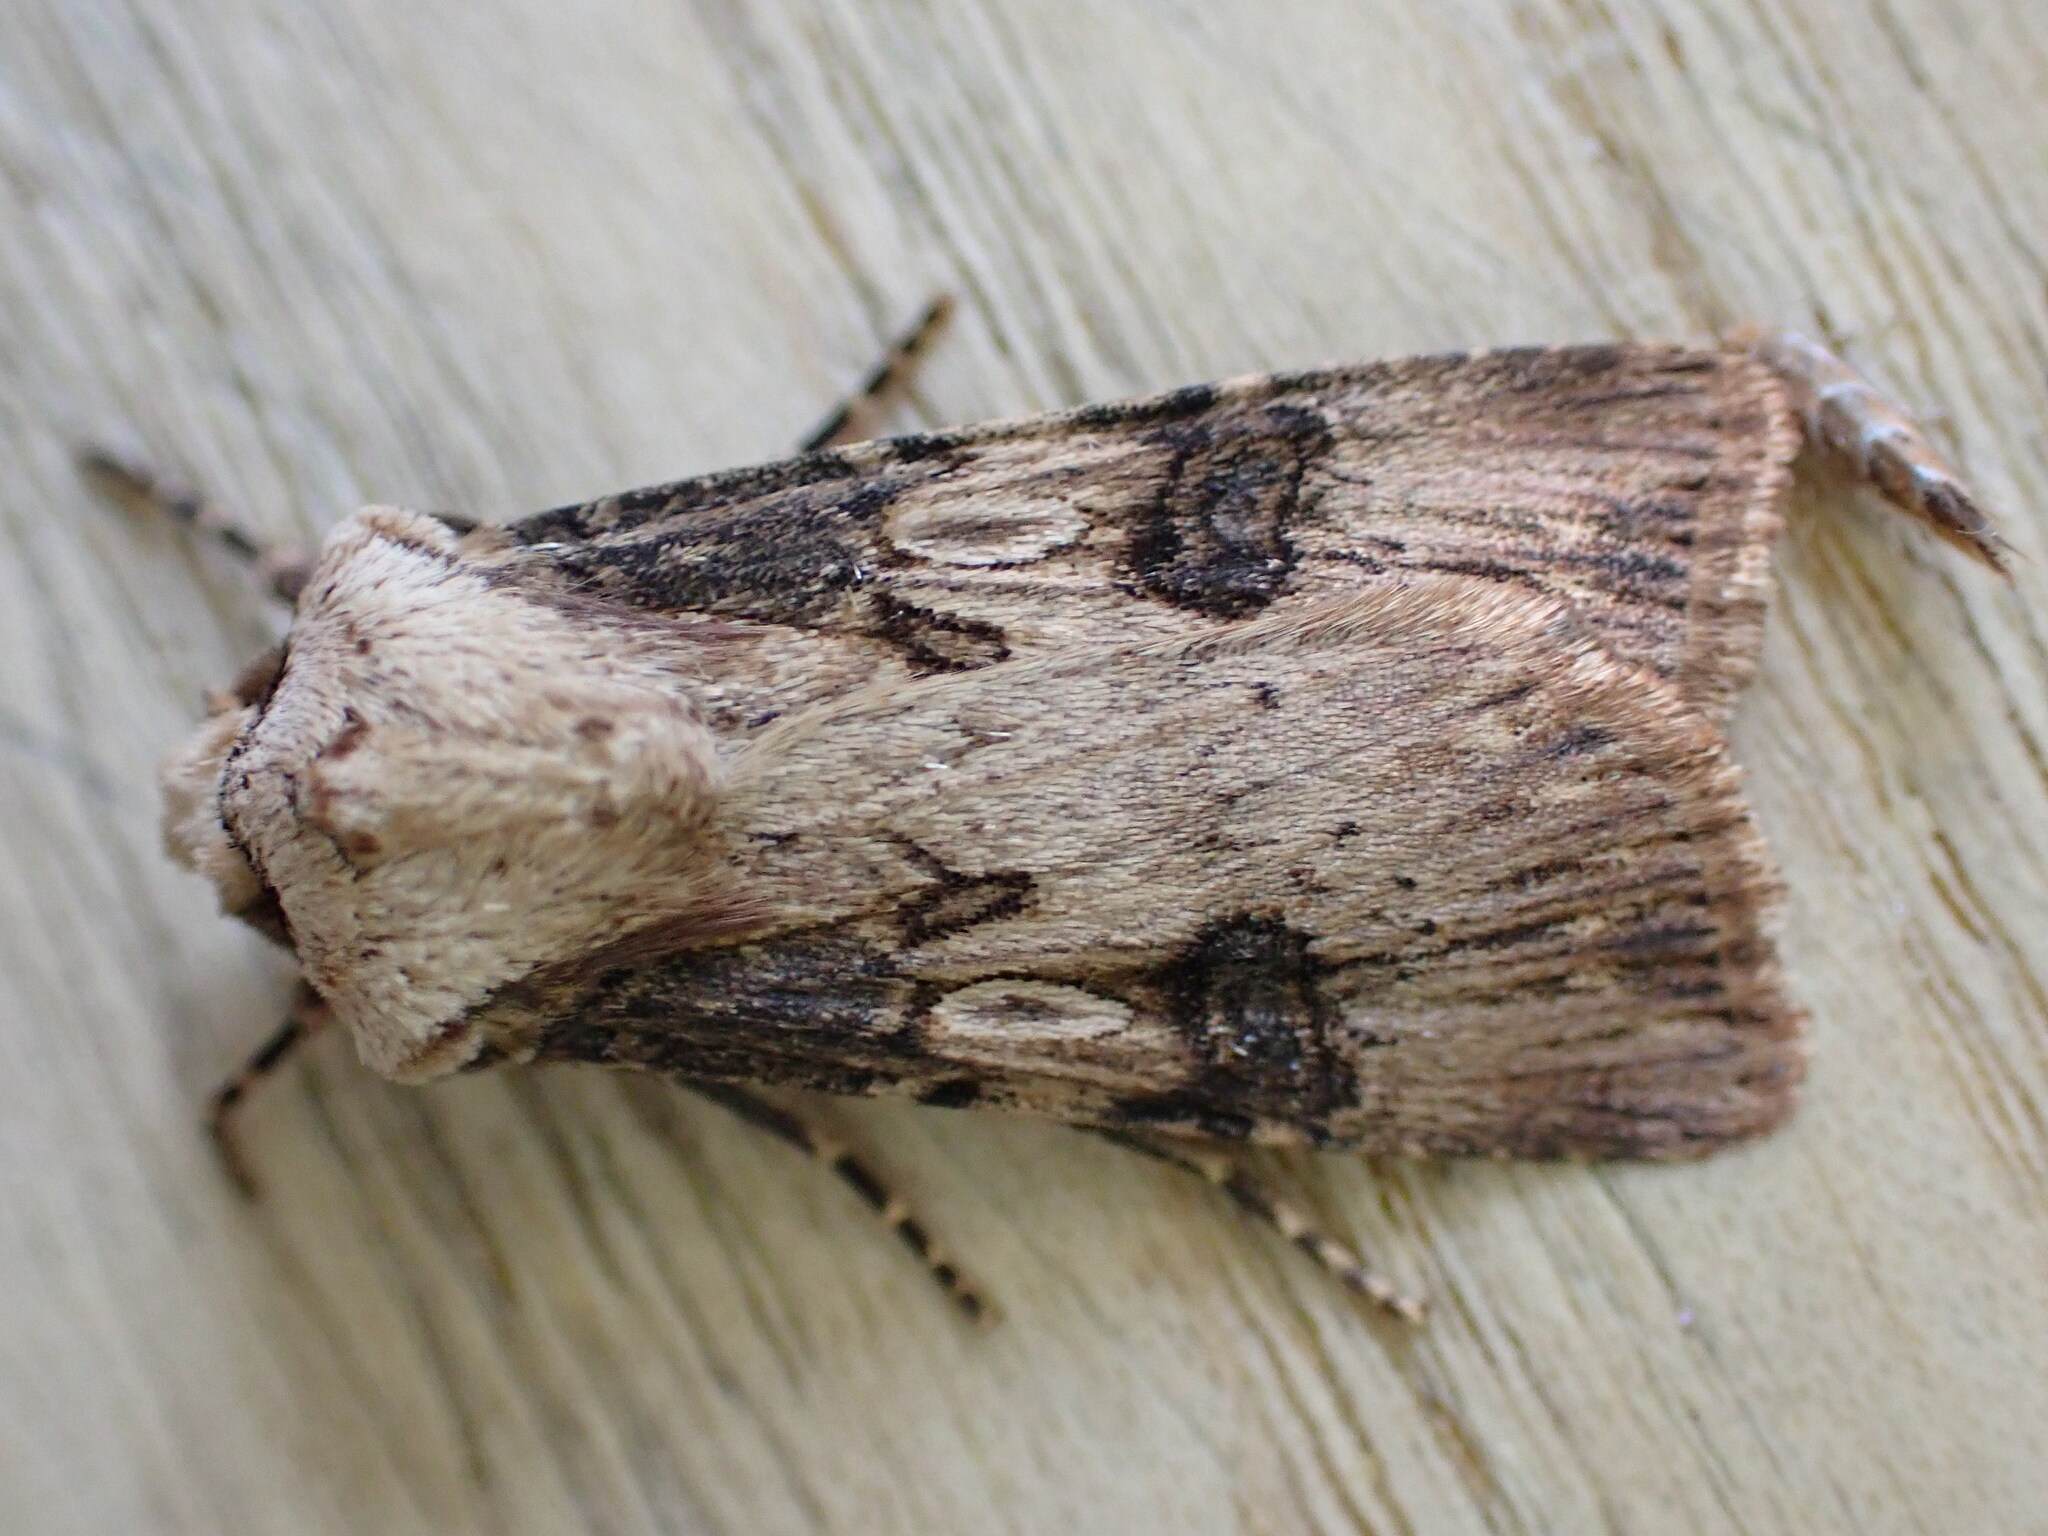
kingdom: Animalia
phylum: Arthropoda
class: Insecta
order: Lepidoptera
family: Noctuidae
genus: Agrotis
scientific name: Agrotis puta
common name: Shuttle-shaped dart
